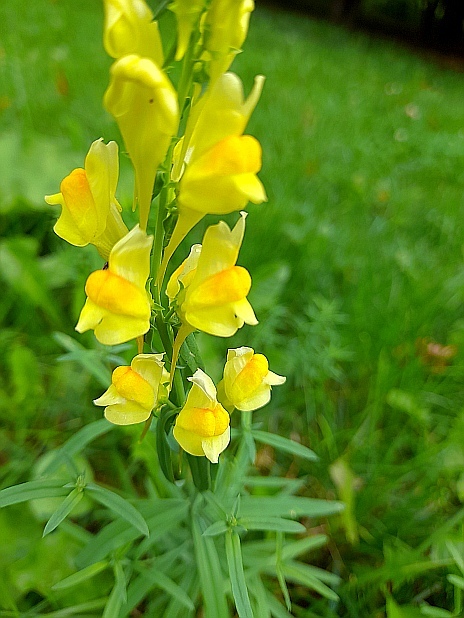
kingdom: Plantae
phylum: Tracheophyta
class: Magnoliopsida
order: Lamiales
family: Plantaginaceae
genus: Linaria
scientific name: Linaria vulgaris
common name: Butter and eggs
